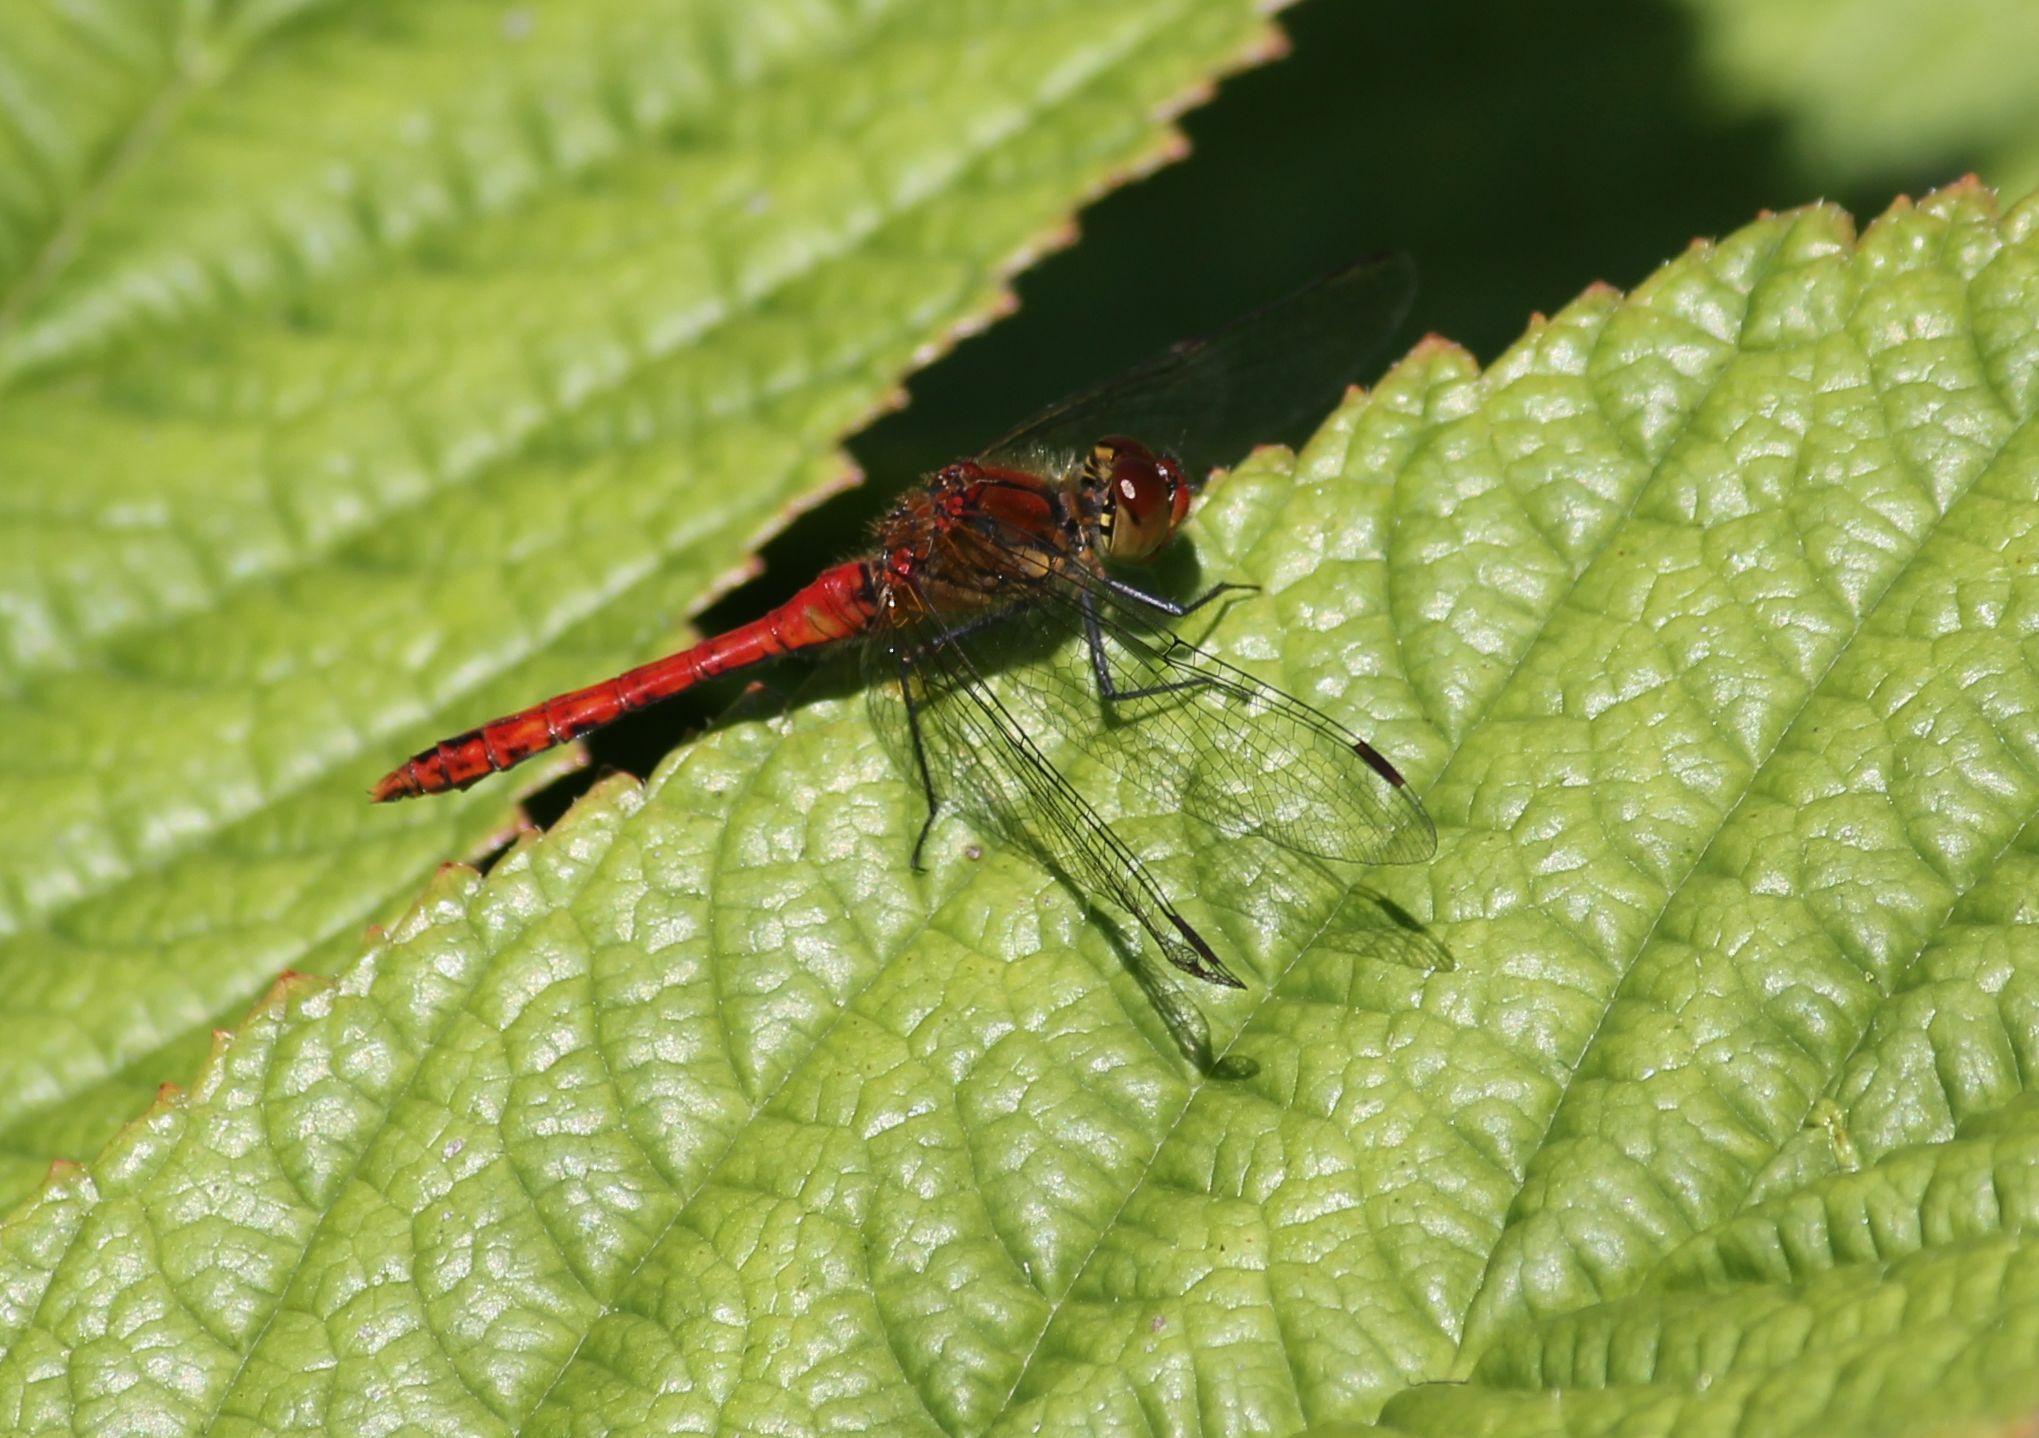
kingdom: Animalia
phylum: Arthropoda
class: Insecta
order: Odonata
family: Libellulidae
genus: Sympetrum
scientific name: Sympetrum sanguineum
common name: Ruddy darter
